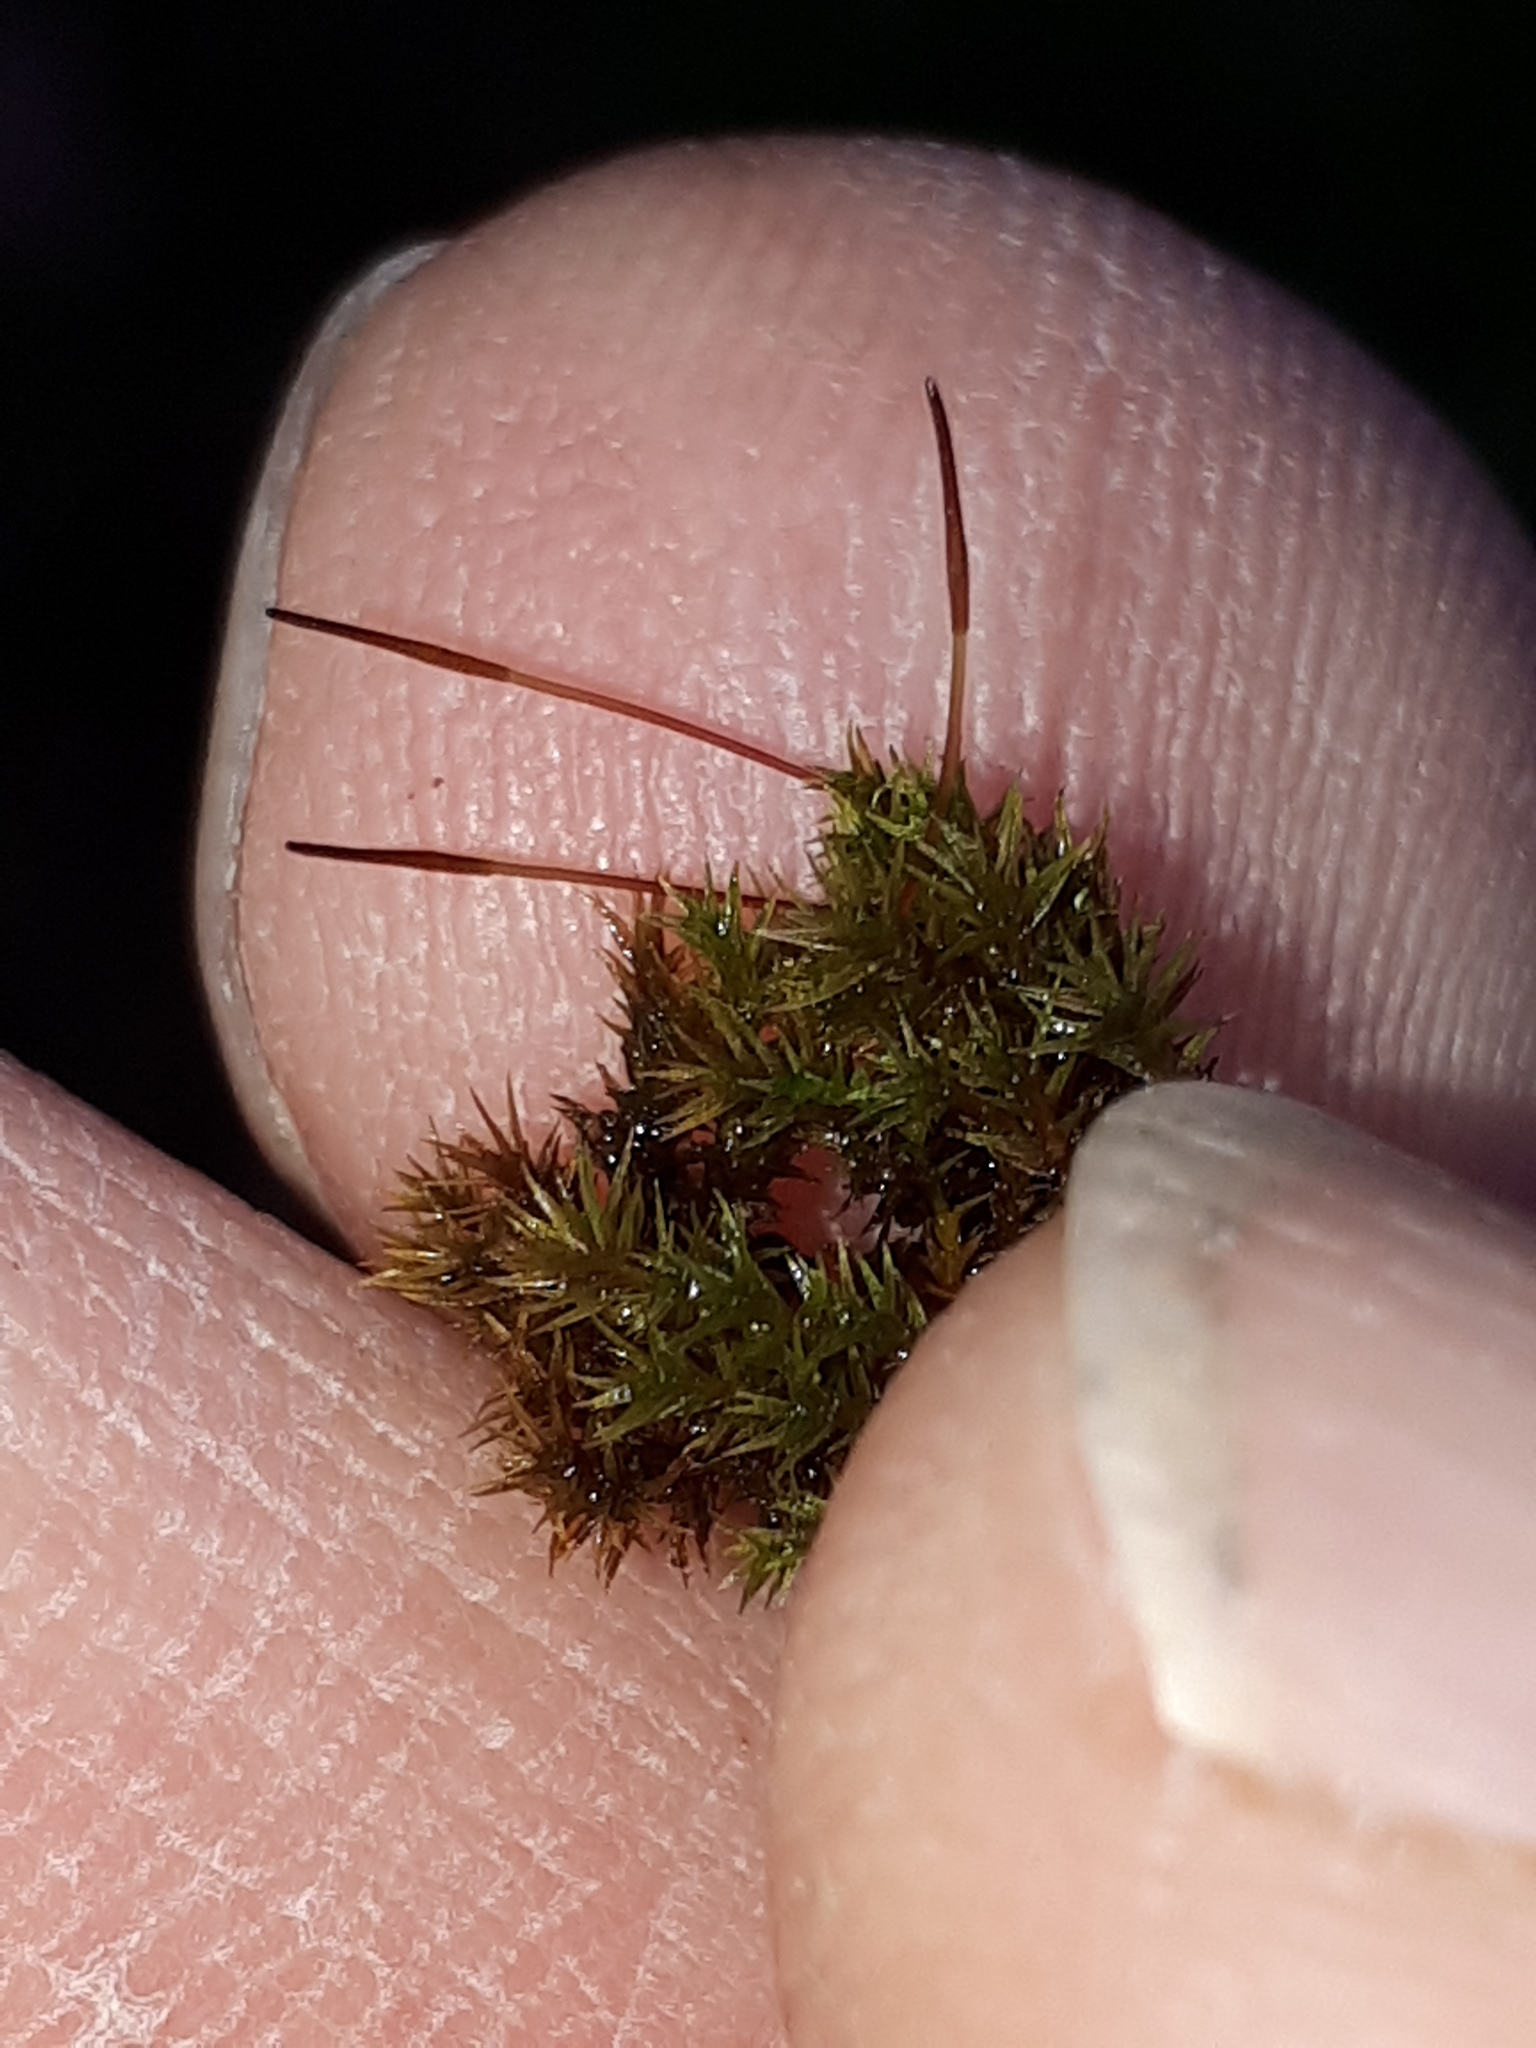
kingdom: Plantae
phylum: Bryophyta
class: Bryopsida
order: Dicranales
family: Ditrichaceae
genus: Ceratodon
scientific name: Ceratodon purpureus
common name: Redshank
